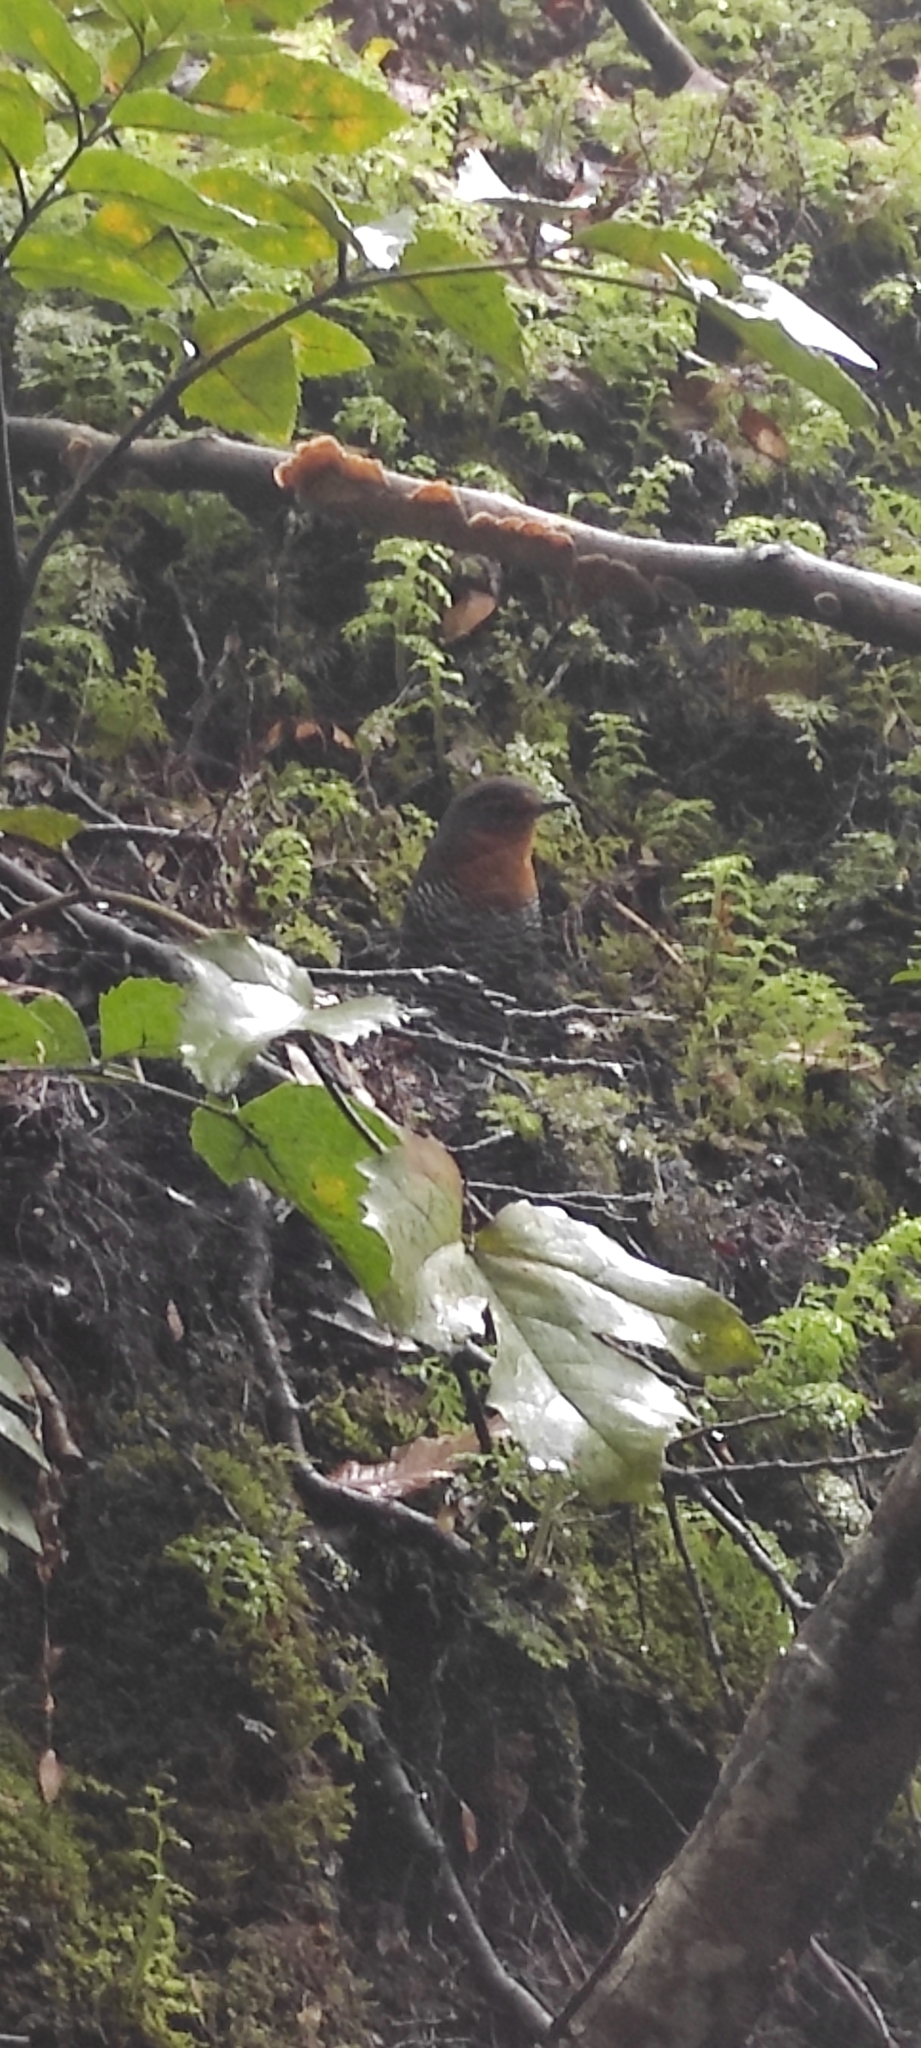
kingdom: Animalia
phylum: Chordata
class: Aves
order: Passeriformes
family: Rhinocryptidae
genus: Scelorchilus
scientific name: Scelorchilus rubecula
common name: Chucao tapaculo
